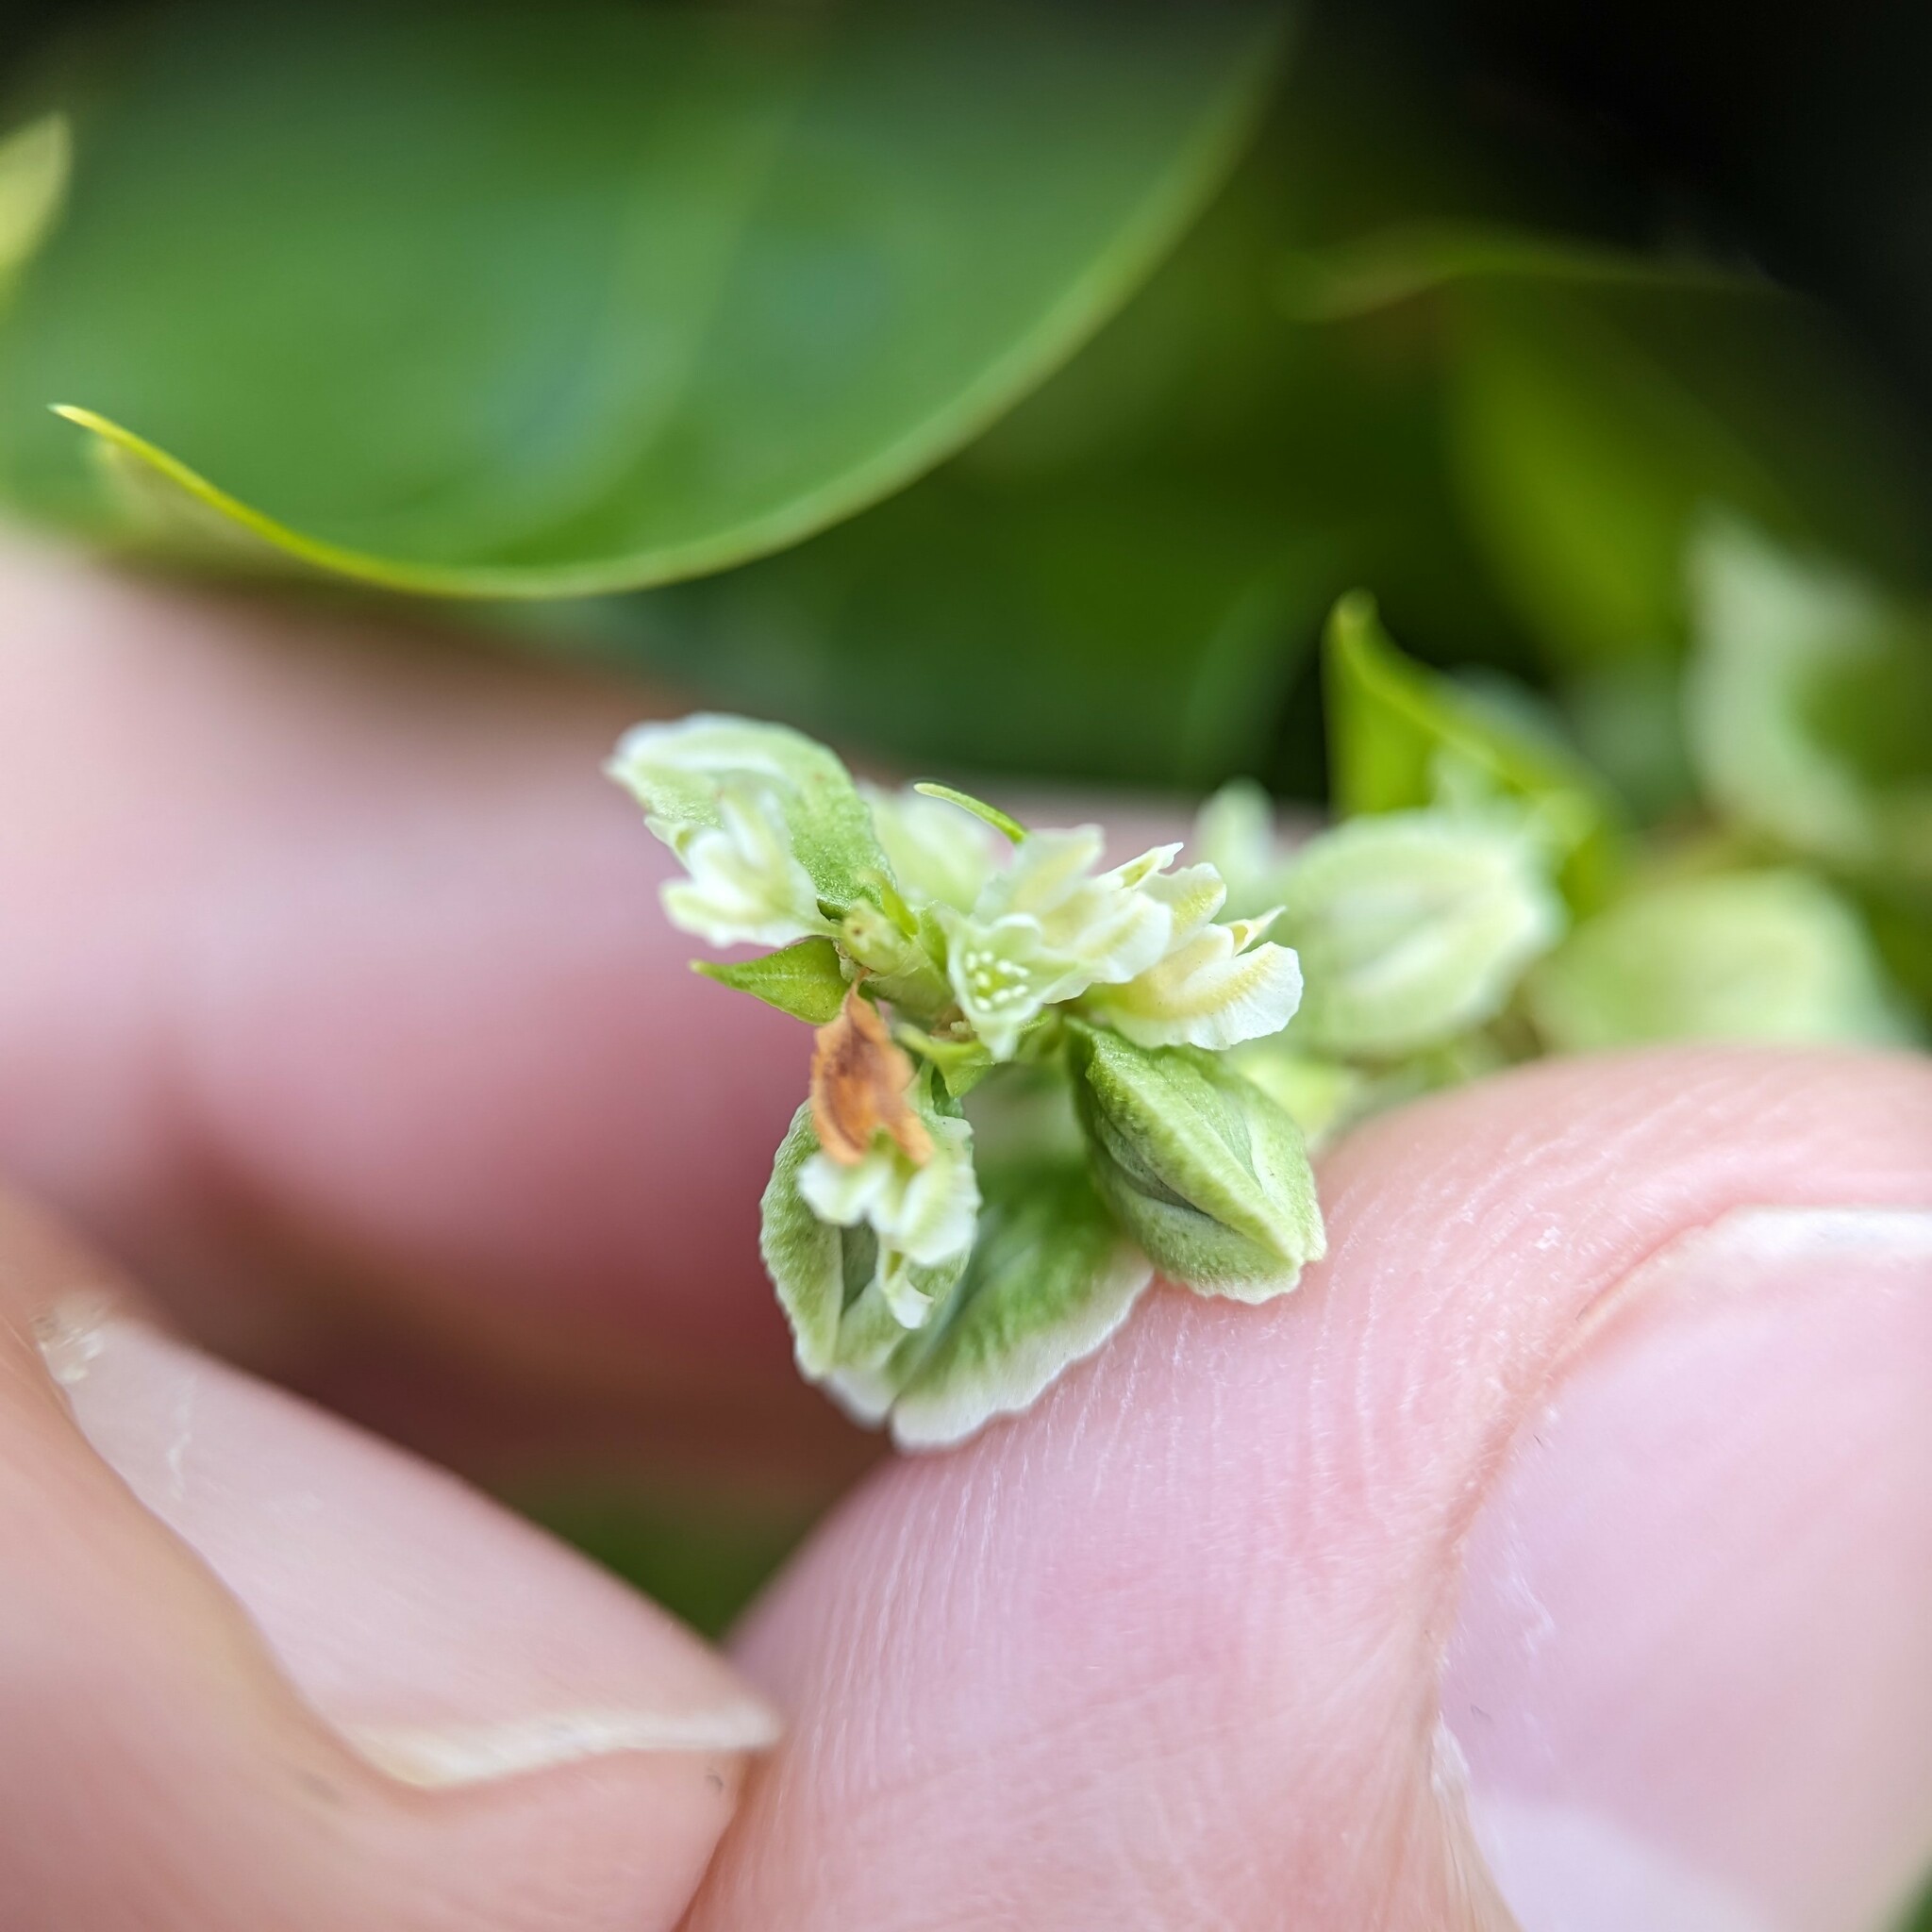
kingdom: Plantae
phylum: Tracheophyta
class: Magnoliopsida
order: Caryophyllales
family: Polygonaceae
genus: Fallopia
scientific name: Fallopia scandens
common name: Climbing false buckwheat
